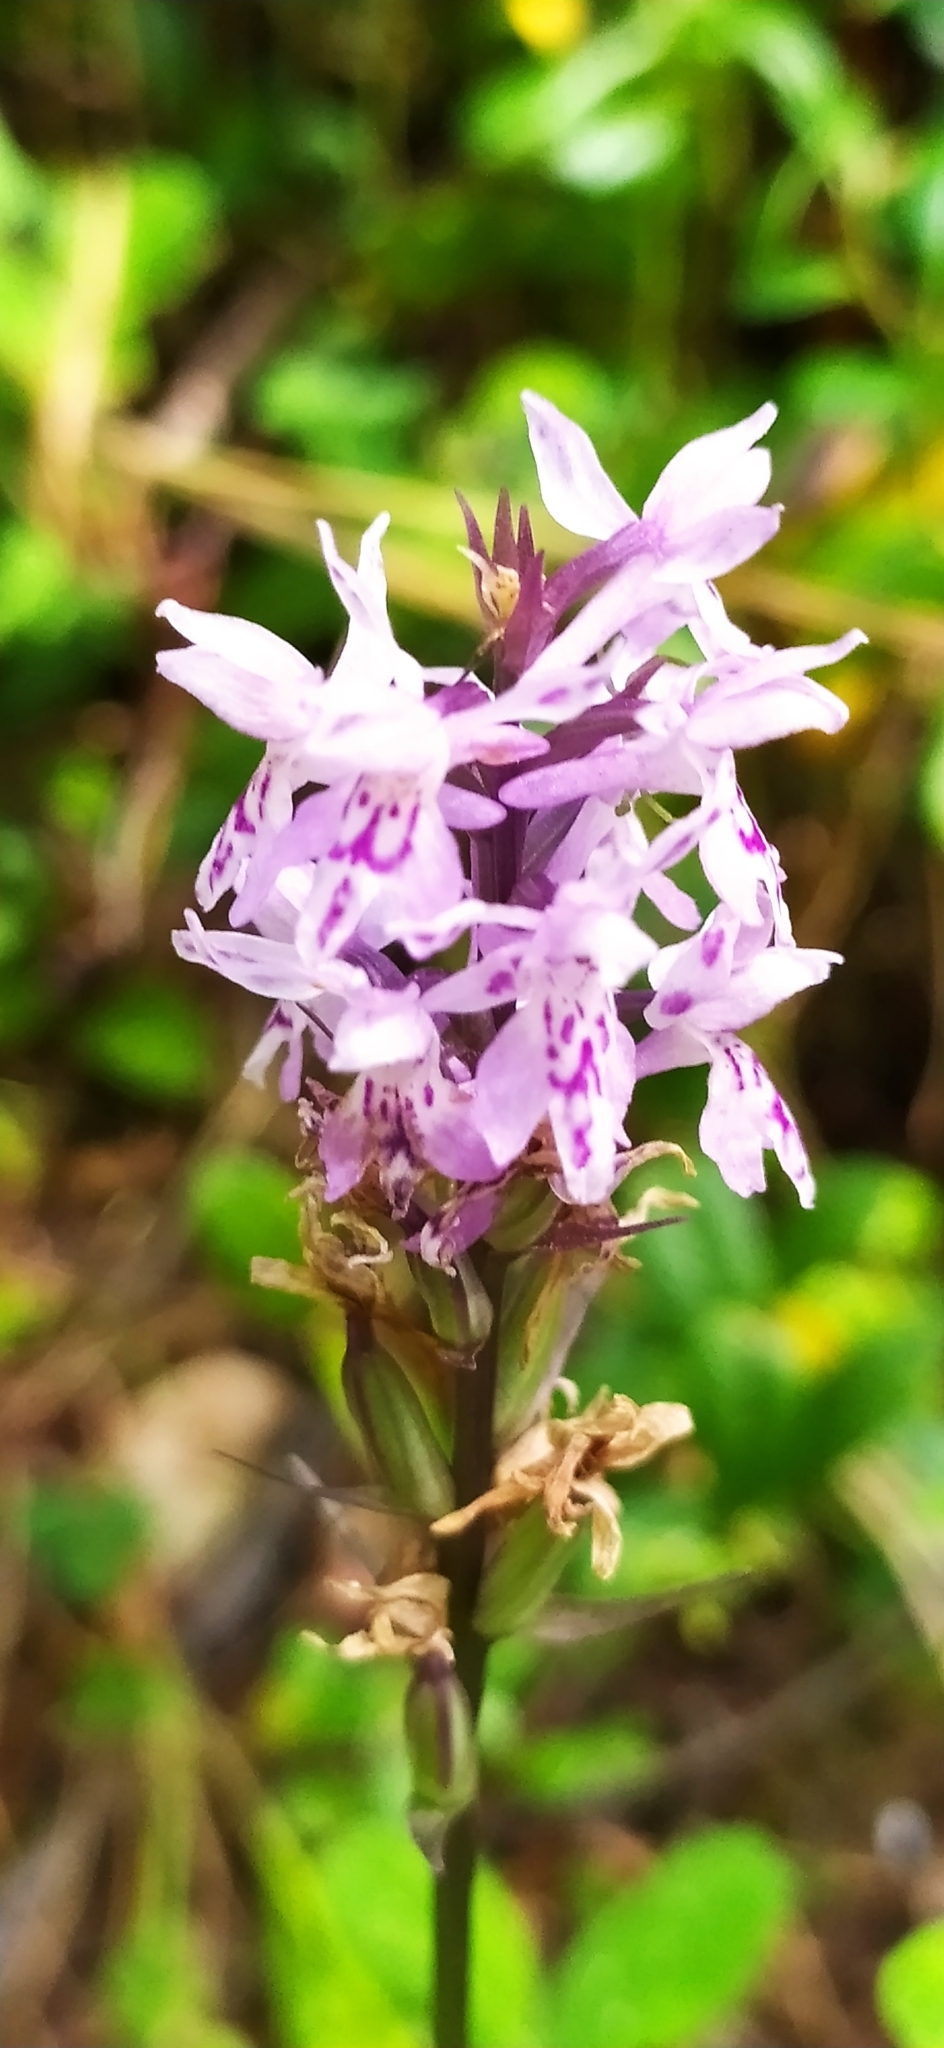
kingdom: Plantae
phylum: Tracheophyta
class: Liliopsida
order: Asparagales
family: Orchidaceae
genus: Dactylorhiza
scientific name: Dactylorhiza maculata
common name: Heath spotted-orchid
